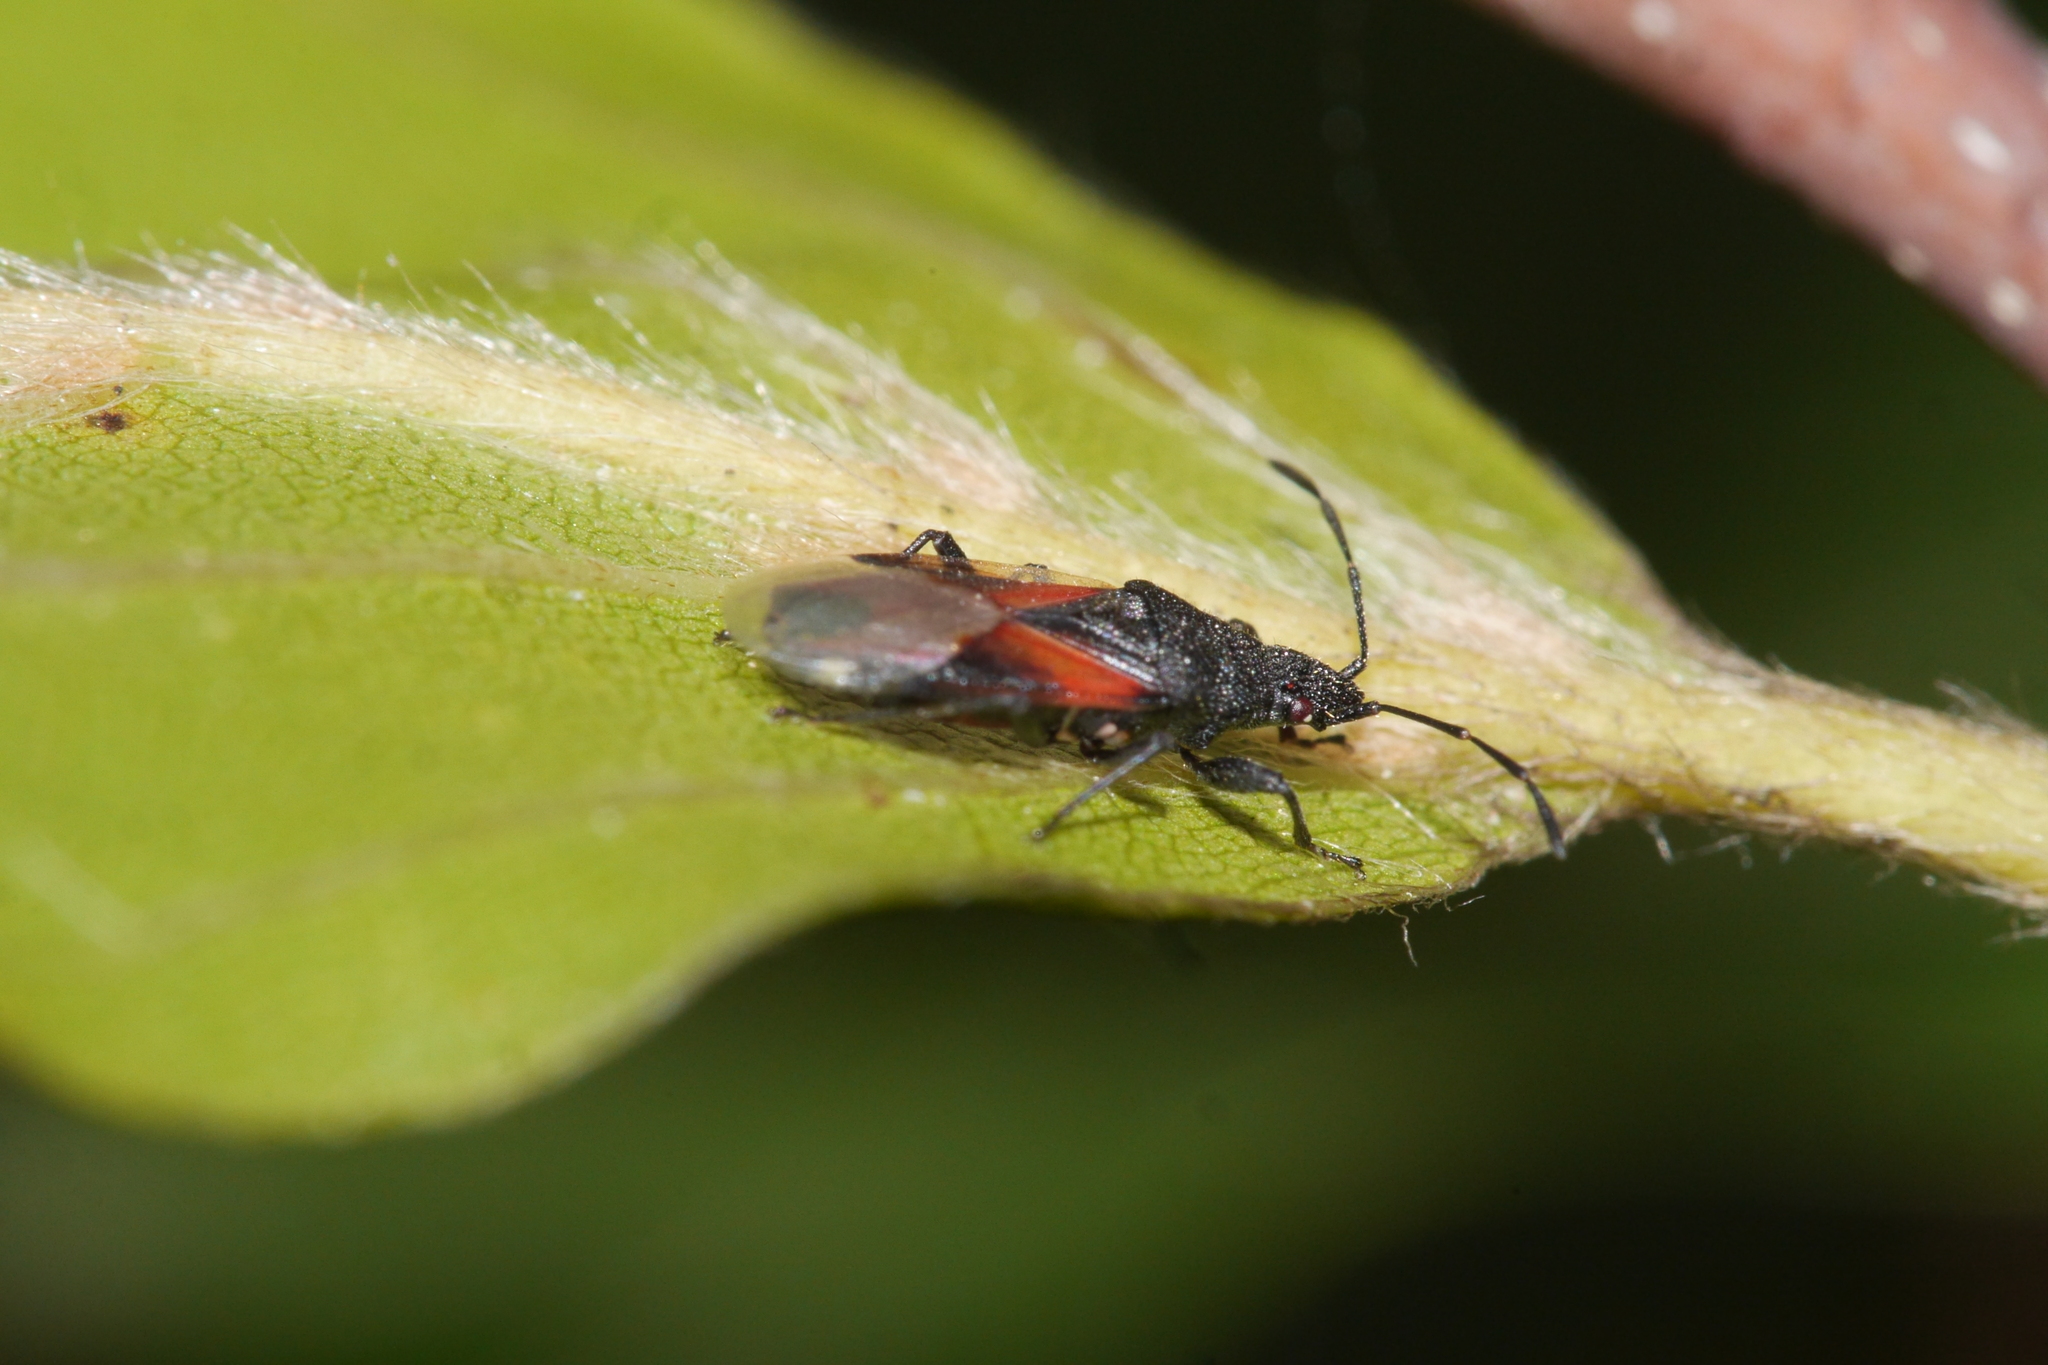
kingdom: Animalia
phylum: Arthropoda
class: Insecta
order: Hemiptera
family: Oxycarenidae
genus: Oxycarenus
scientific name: Oxycarenus lavaterae
